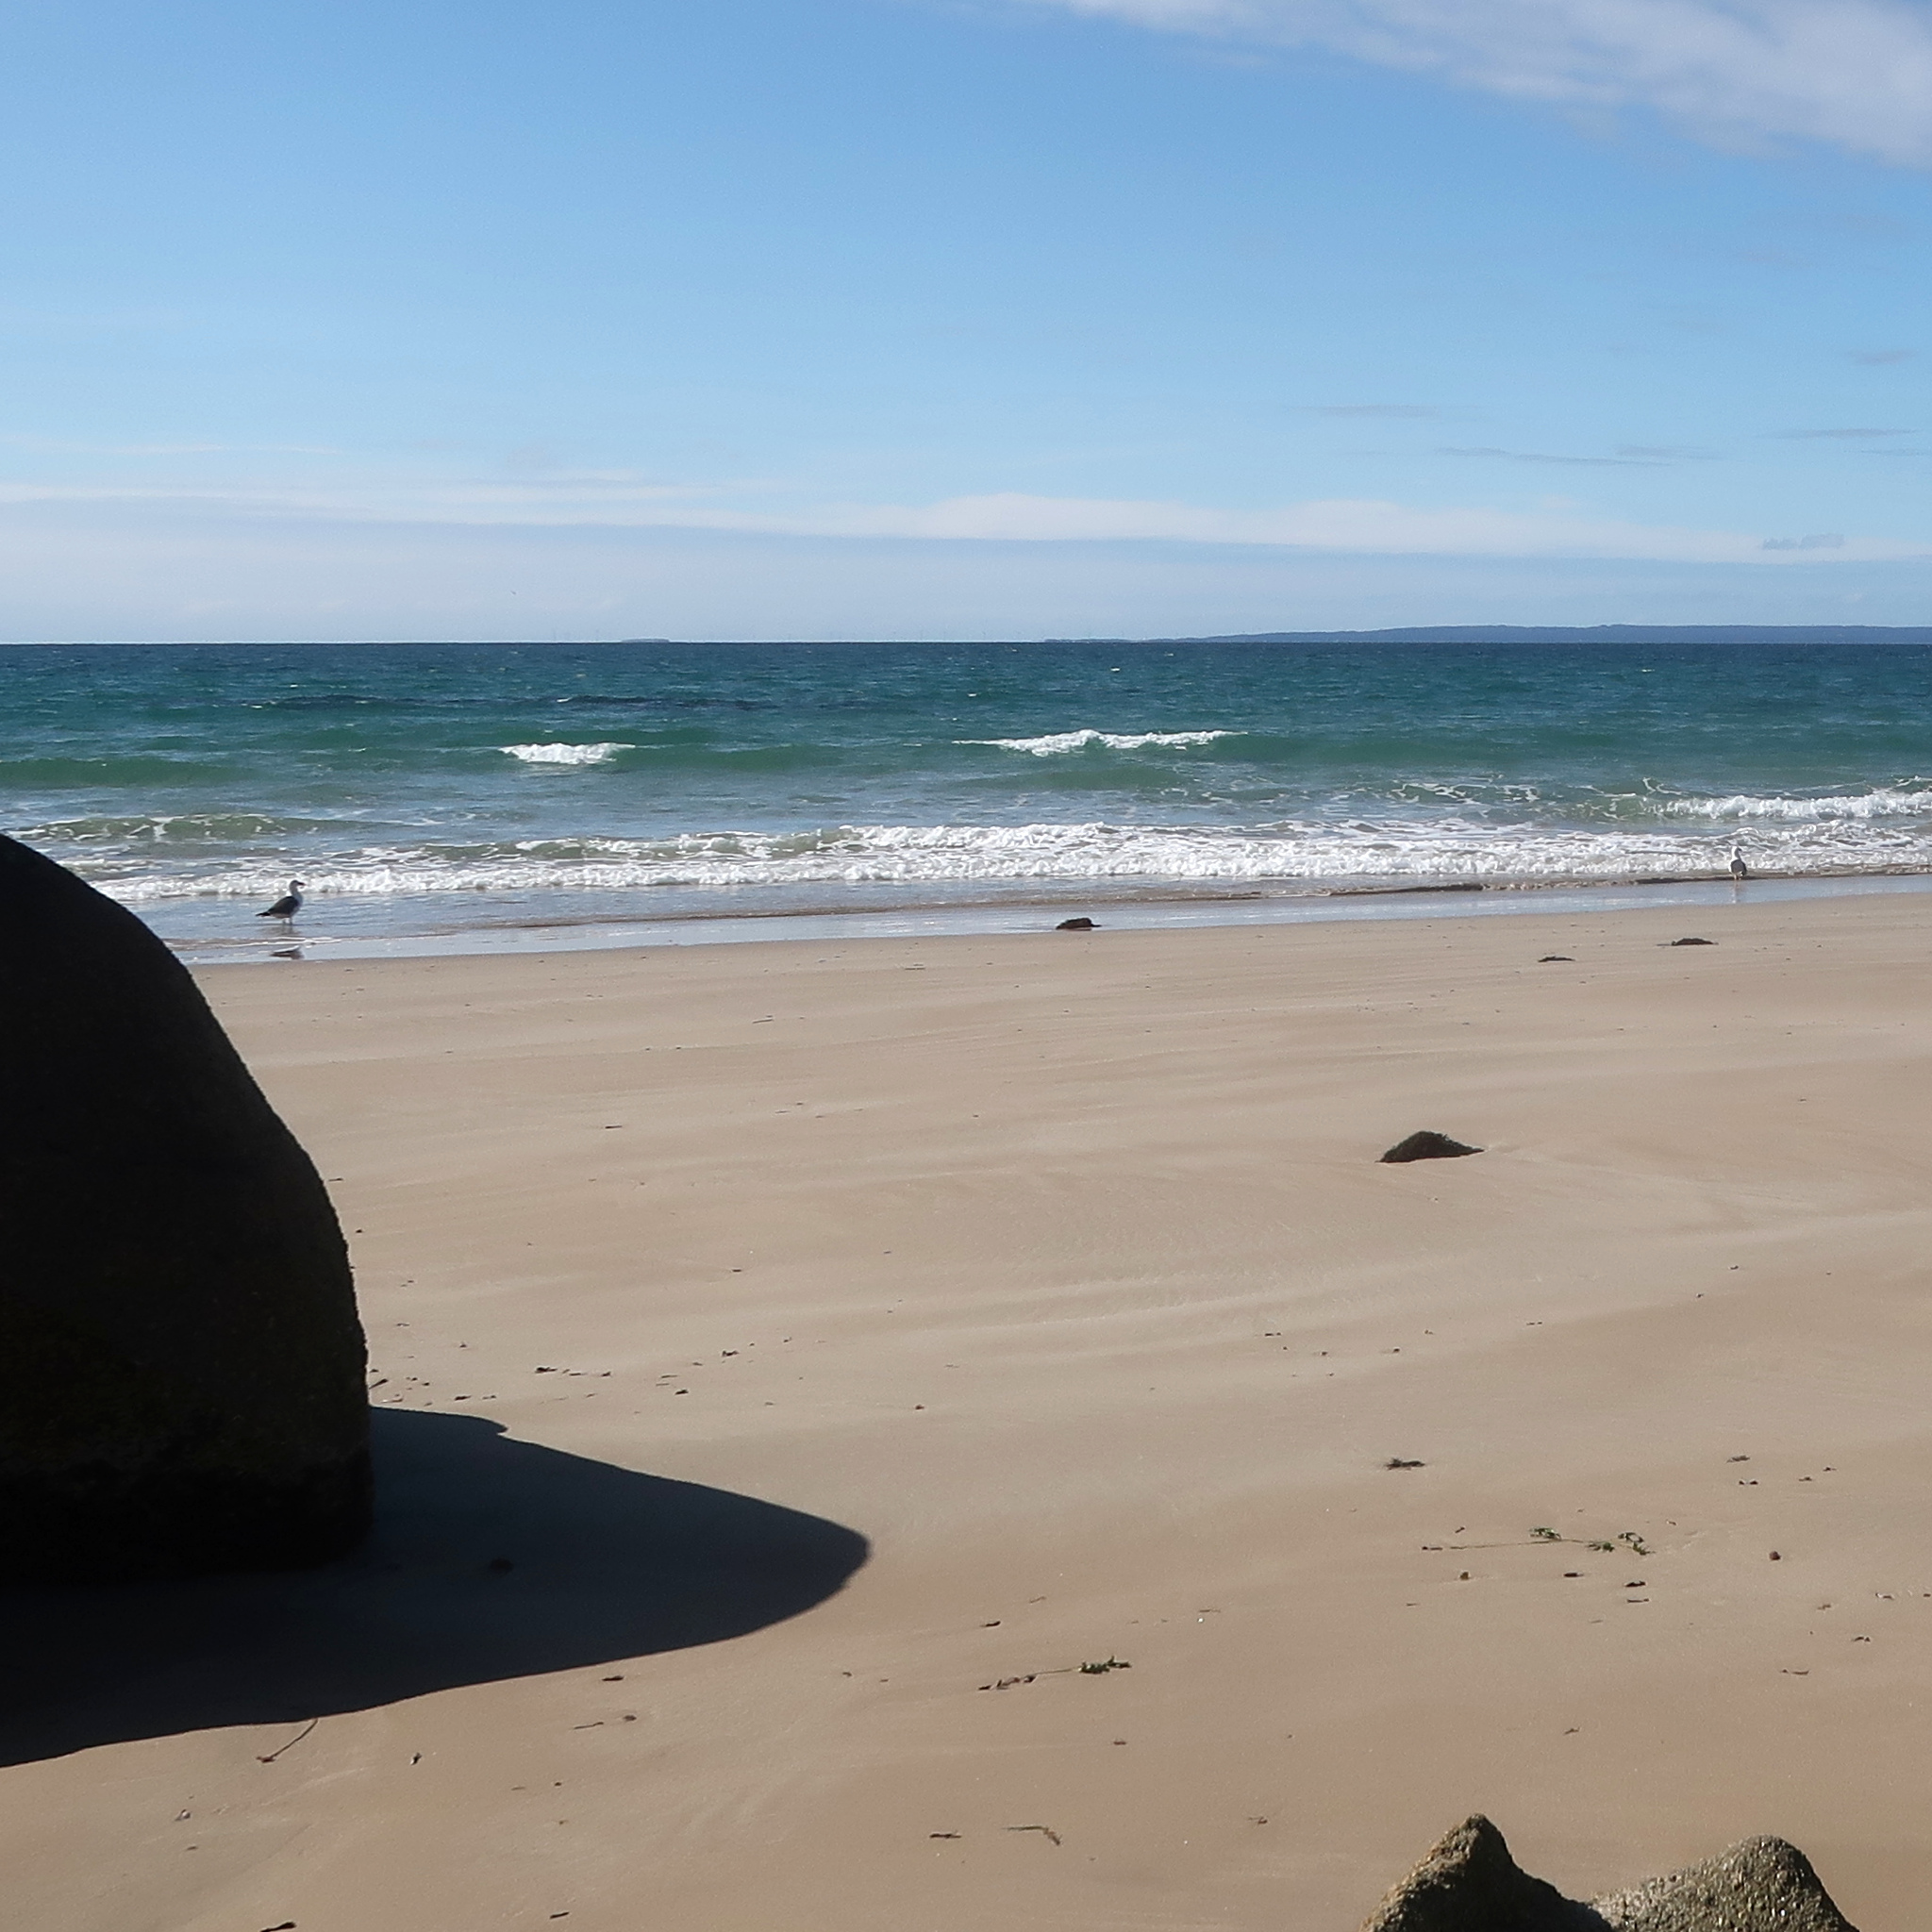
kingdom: Animalia
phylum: Chordata
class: Aves
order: Charadriiformes
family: Laridae
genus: Larus
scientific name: Larus pacificus
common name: Pacific gull
